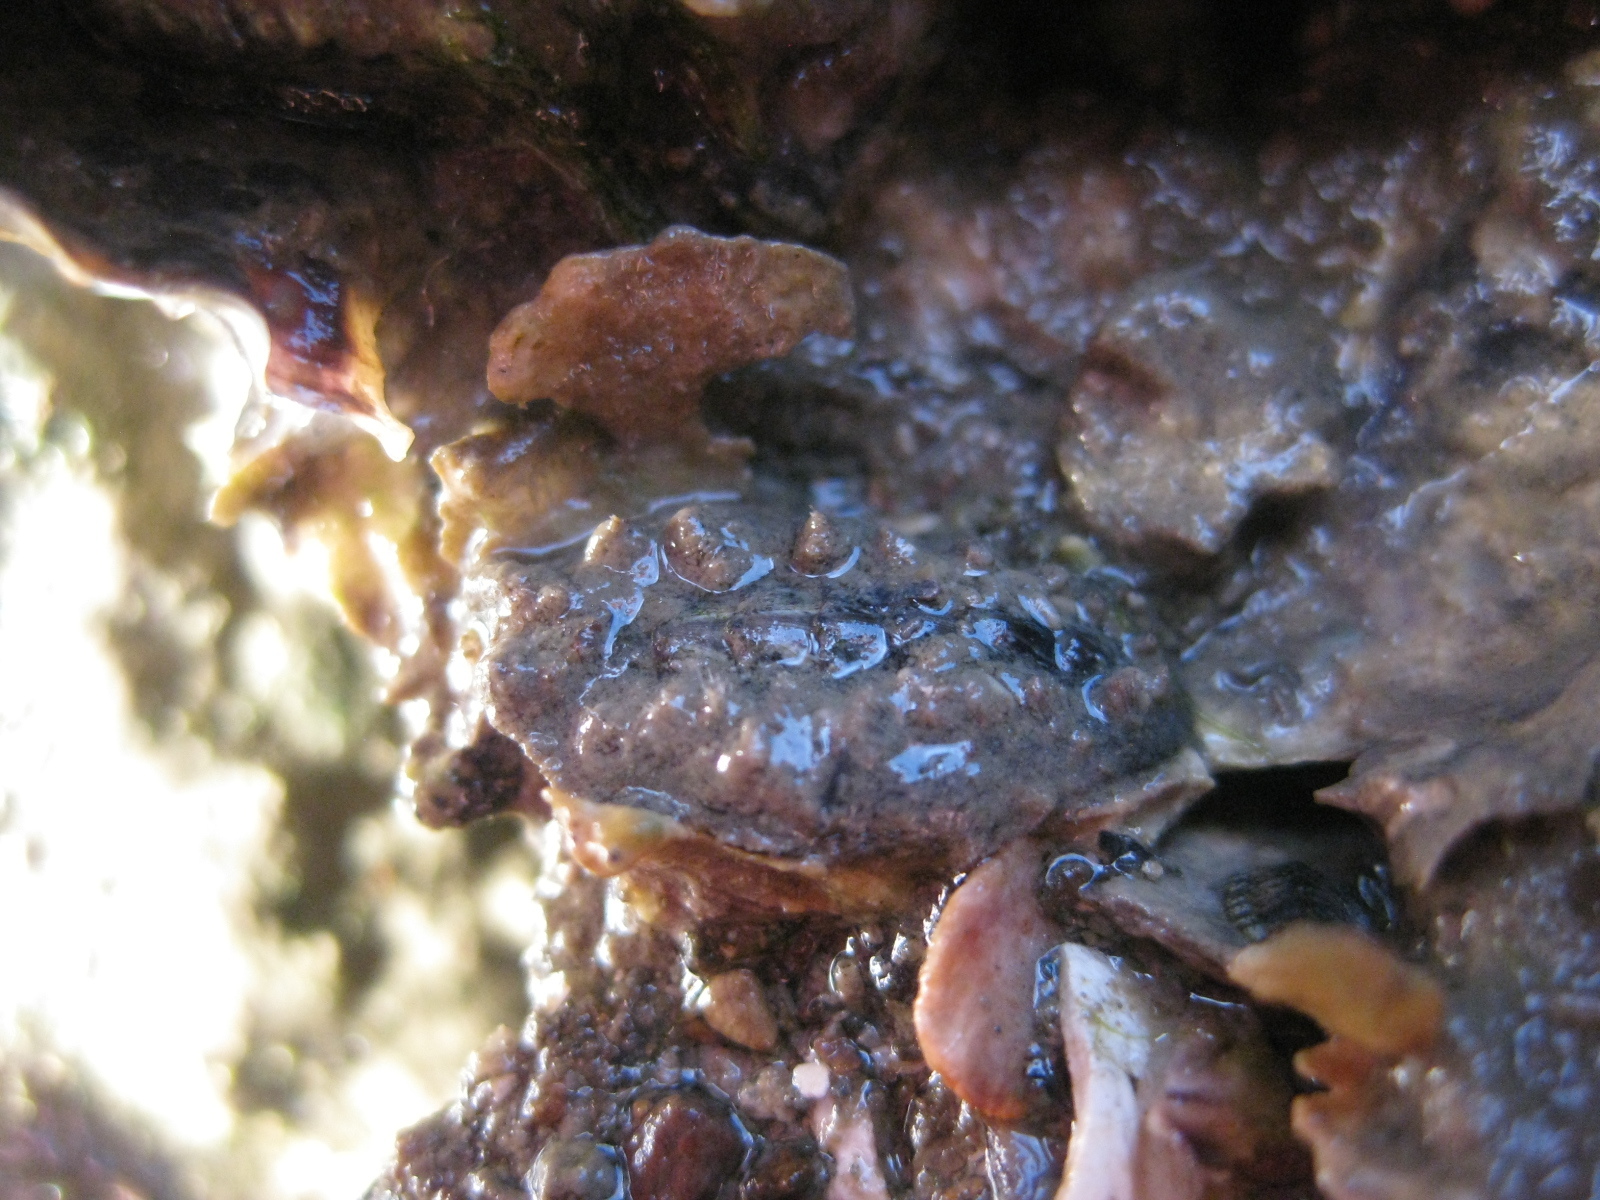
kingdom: Animalia
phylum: Mollusca
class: Polyplacophora
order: Chitonida
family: Acanthochitonidae
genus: Acanthochitona
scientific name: Acanthochitona zelandica
